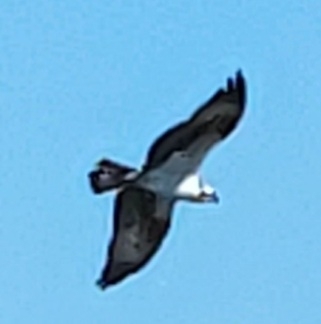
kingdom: Animalia
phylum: Chordata
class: Aves
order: Accipitriformes
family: Pandionidae
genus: Pandion
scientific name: Pandion haliaetus
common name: Osprey
